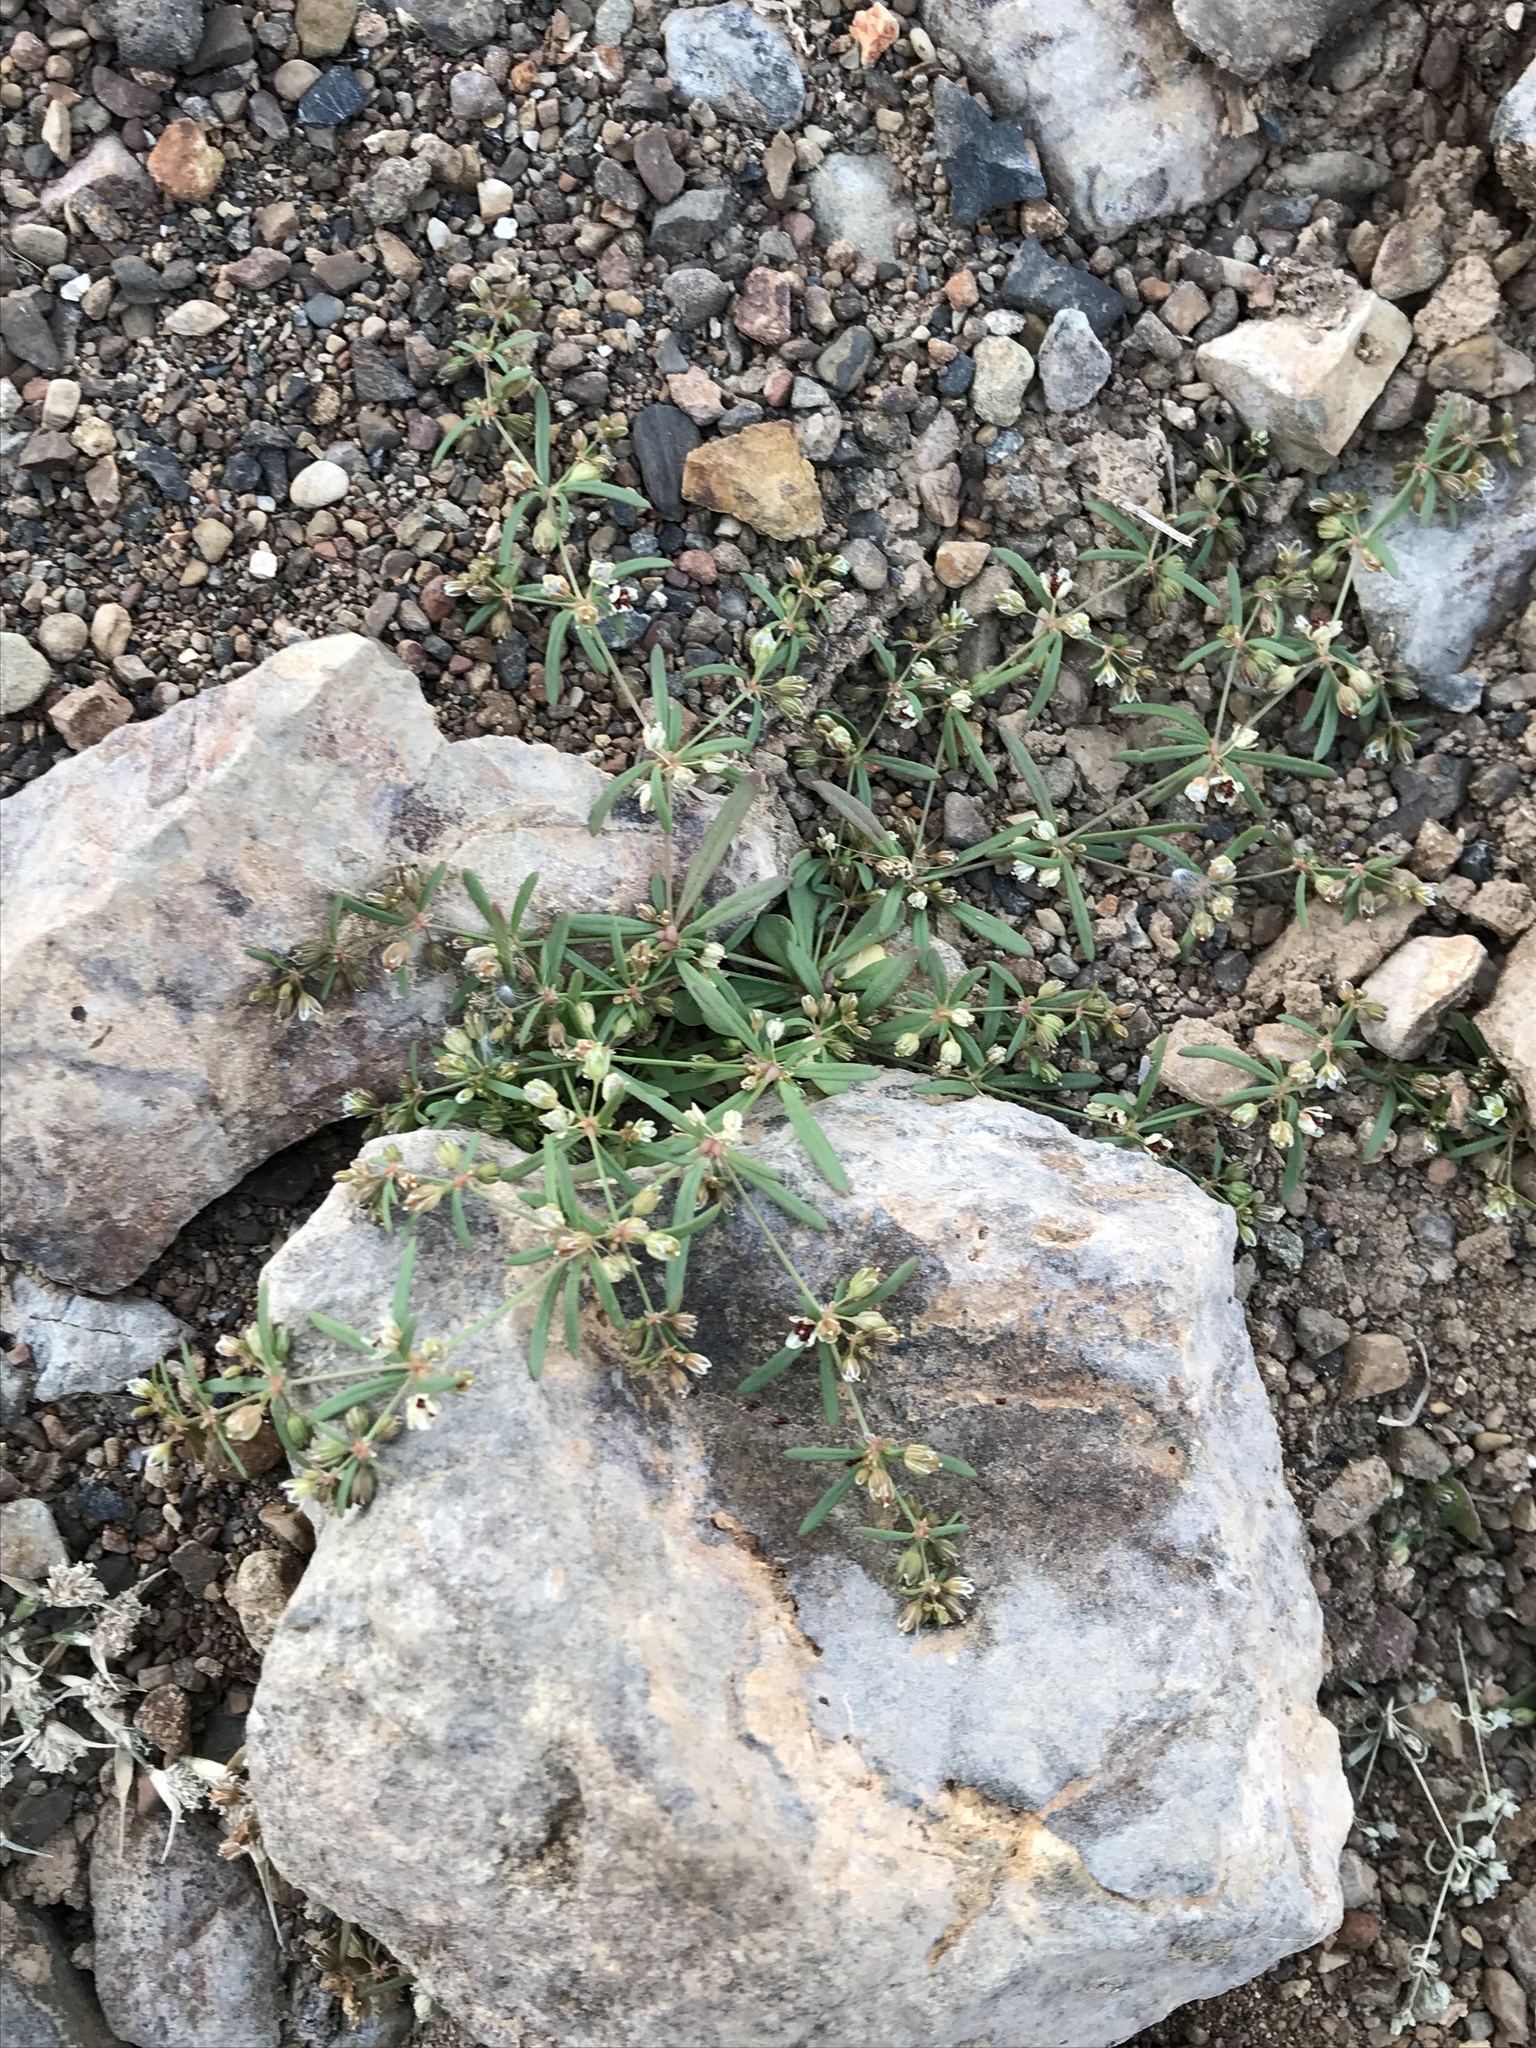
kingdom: Plantae
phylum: Tracheophyta
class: Magnoliopsida
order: Caryophyllales
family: Molluginaceae
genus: Mollugo
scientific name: Mollugo verticillata
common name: Green carpetweed
